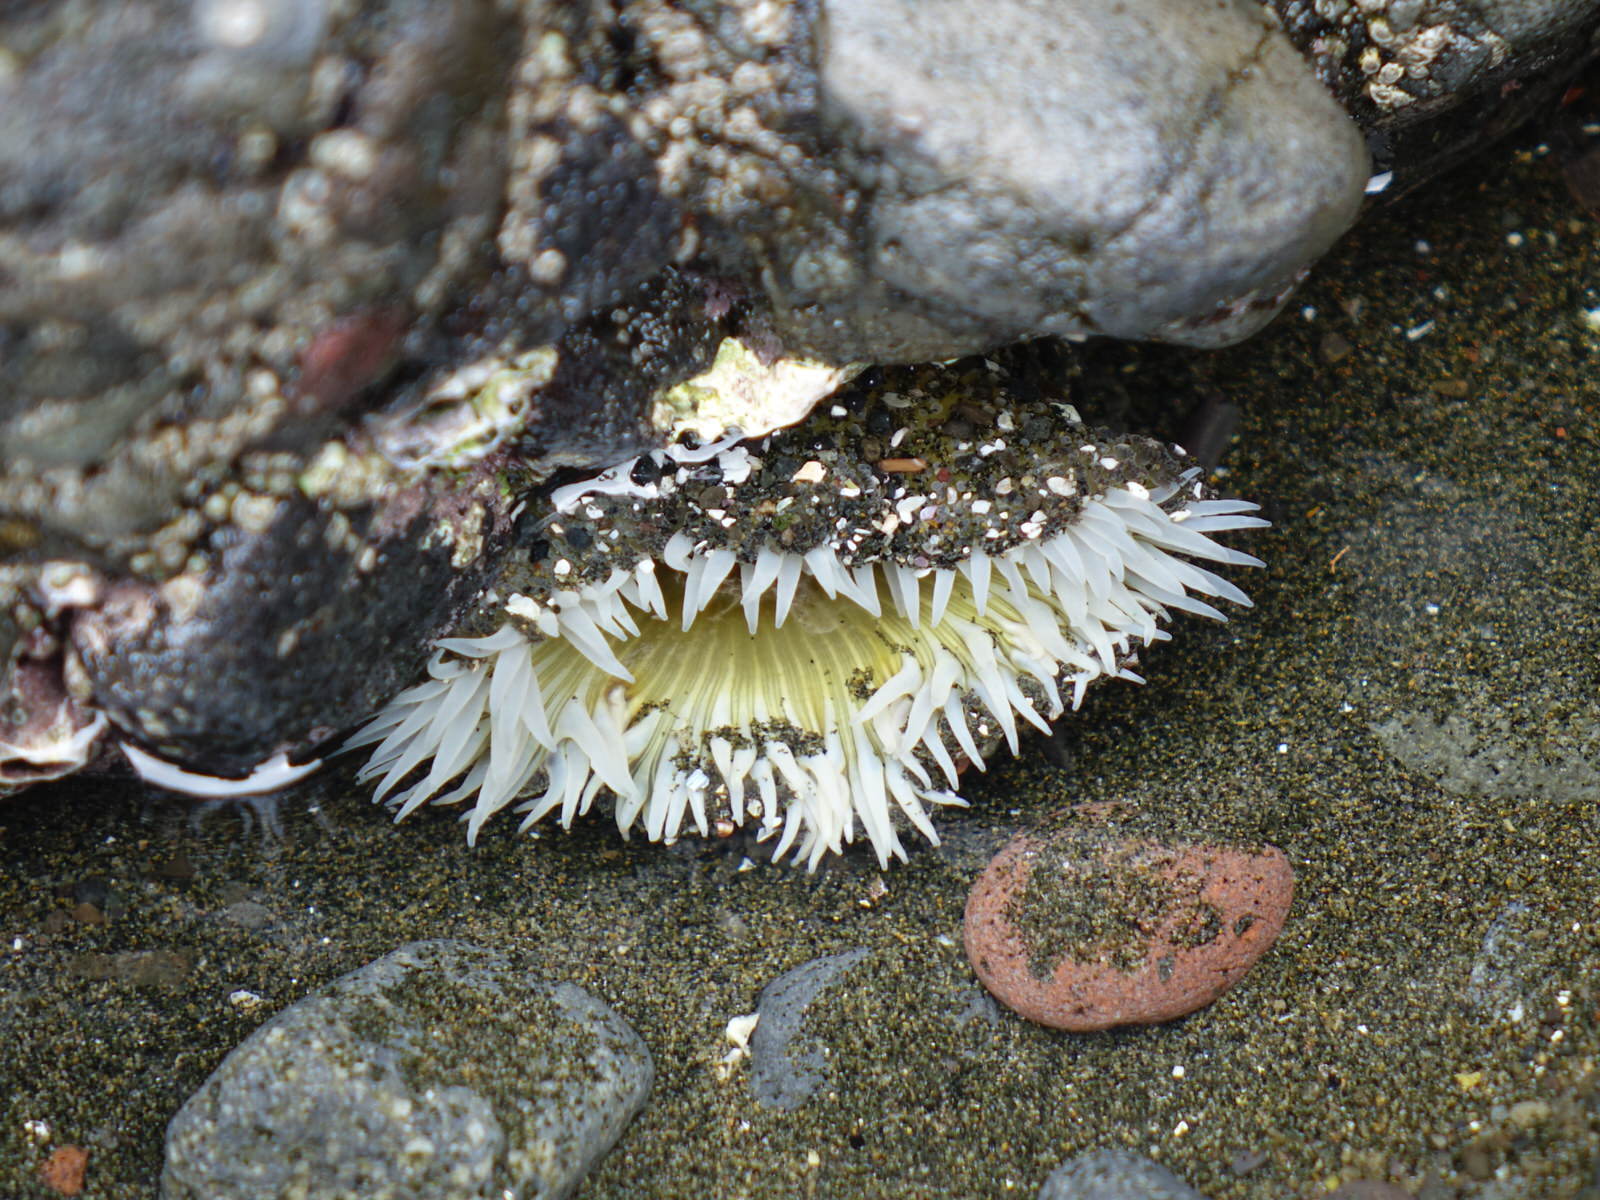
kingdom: Animalia
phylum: Cnidaria
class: Anthozoa
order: Actiniaria
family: Actiniidae
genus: Oulactis
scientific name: Oulactis magna
